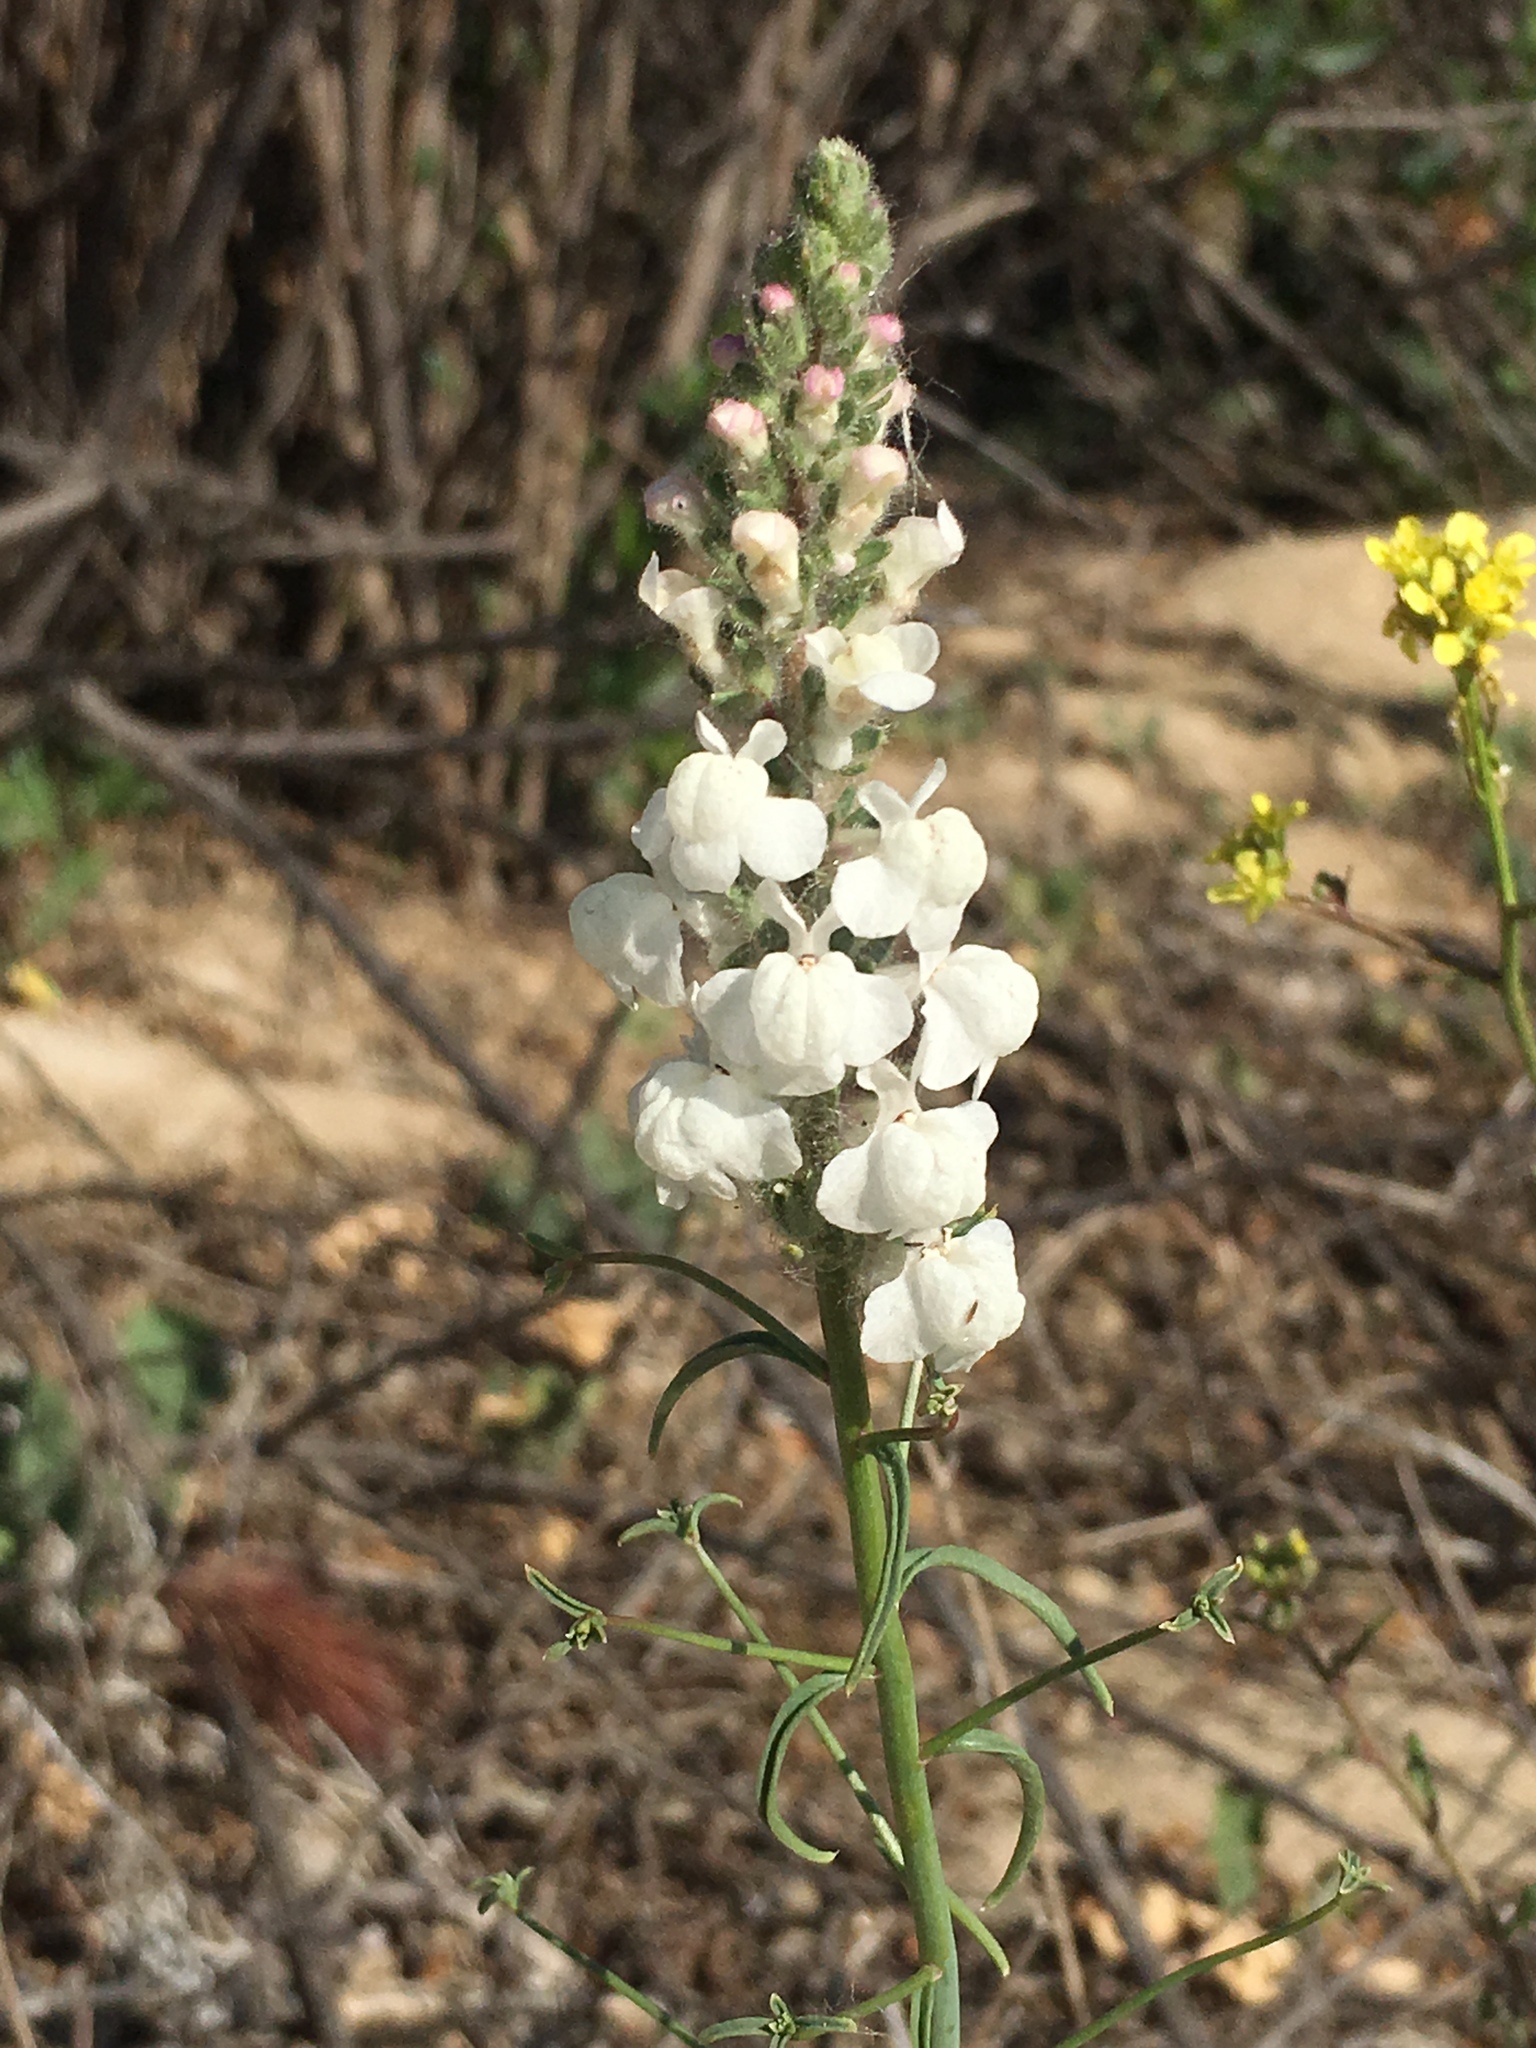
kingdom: Plantae
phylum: Tracheophyta
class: Magnoliopsida
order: Lamiales
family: Plantaginaceae
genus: Sairocarpus
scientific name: Sairocarpus coulterianus
